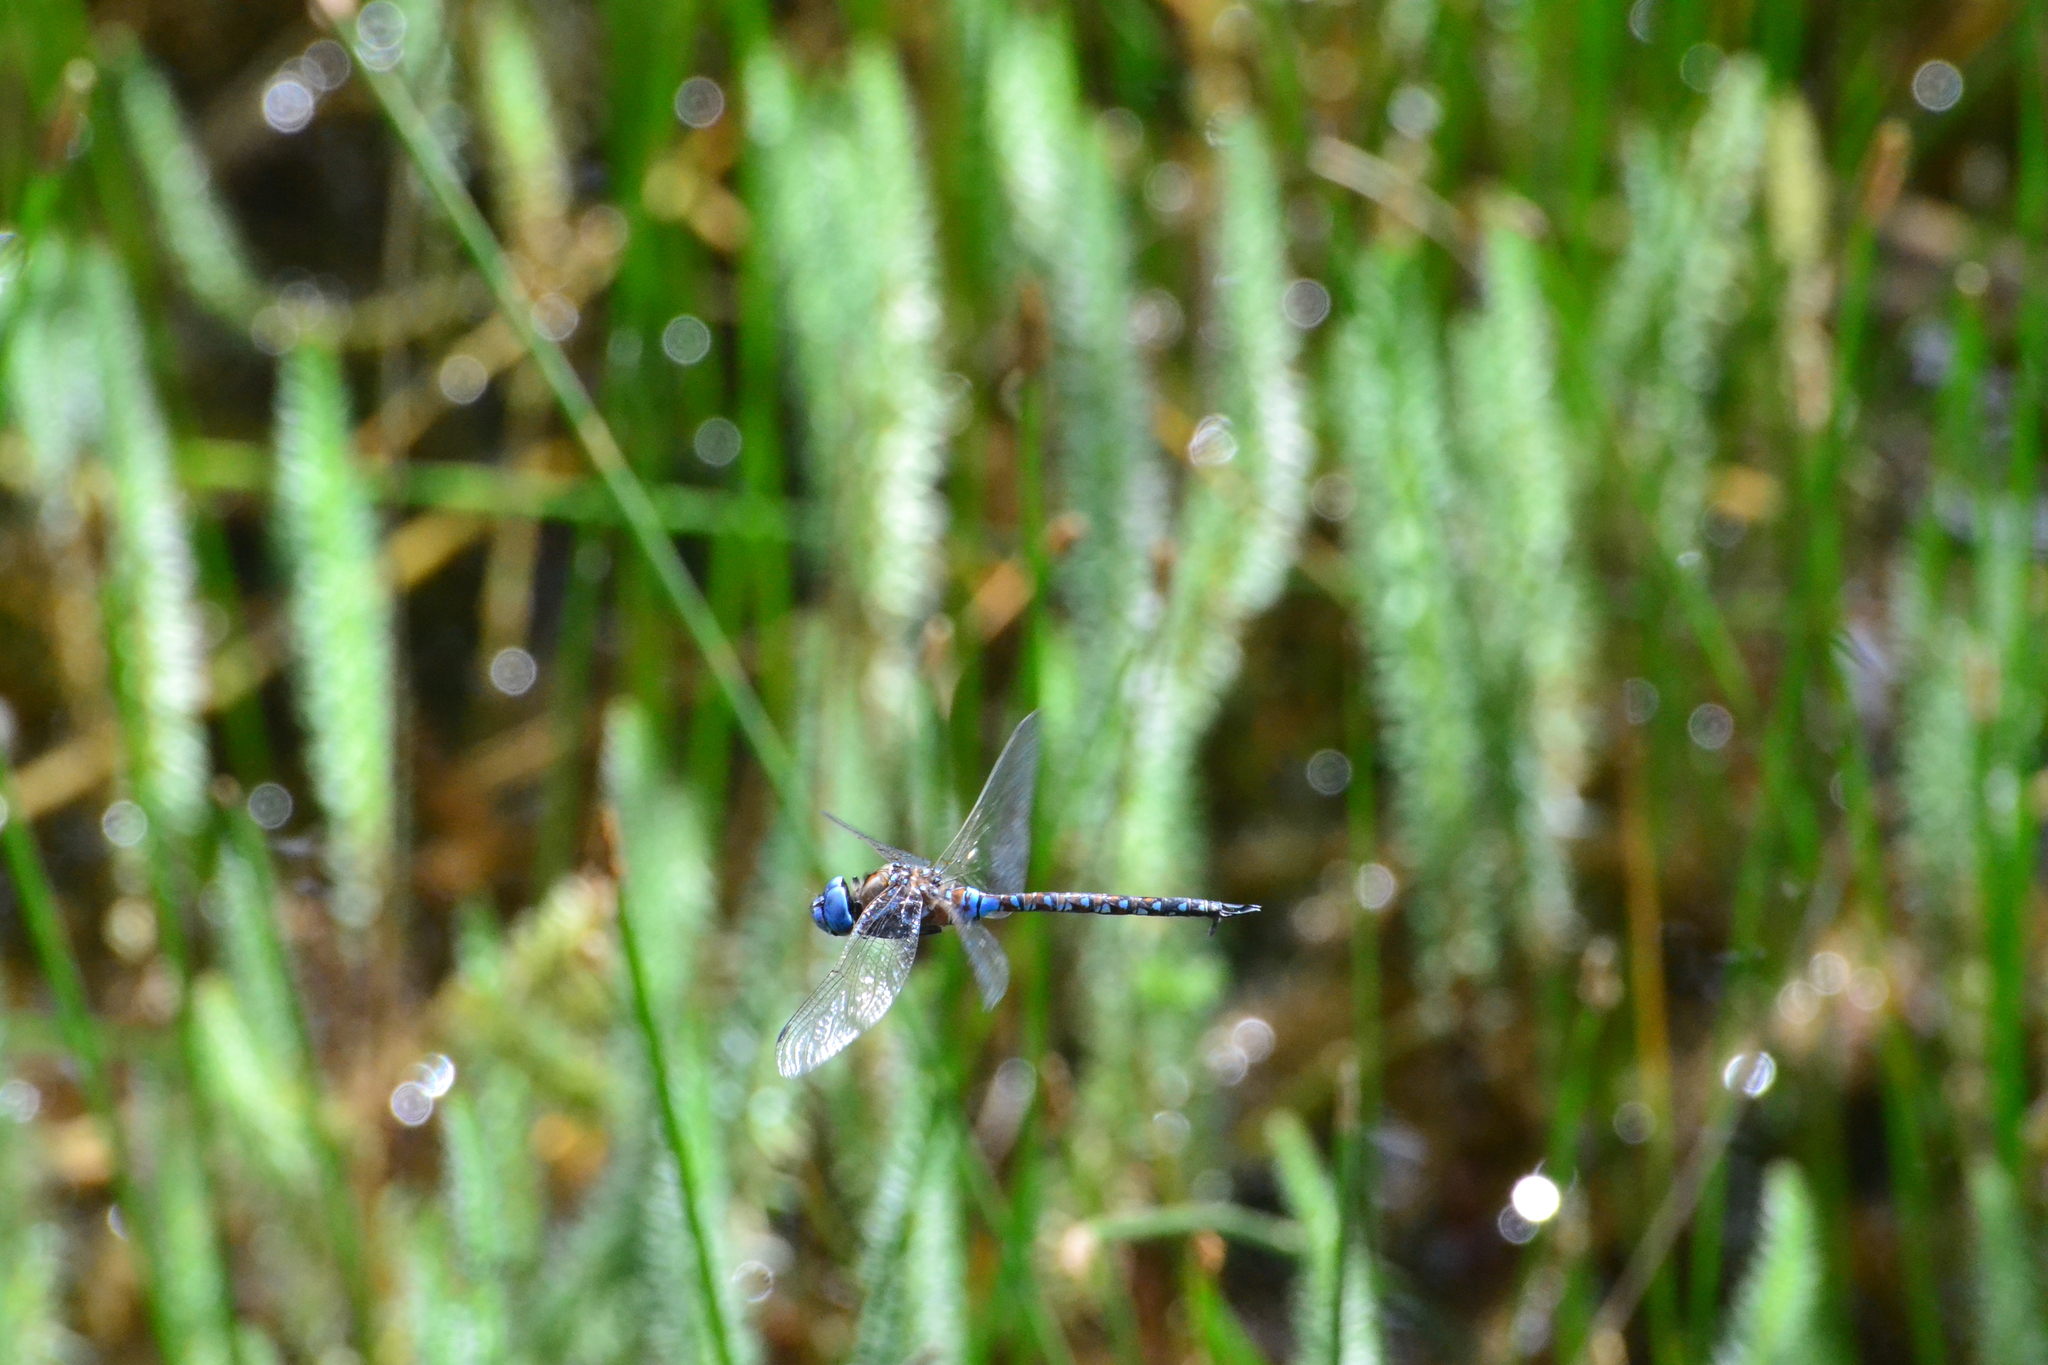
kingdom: Animalia
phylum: Arthropoda
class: Insecta
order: Odonata
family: Aeshnidae
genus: Rhionaeschna
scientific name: Rhionaeschna multicolor
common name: Blue-eyed darner
